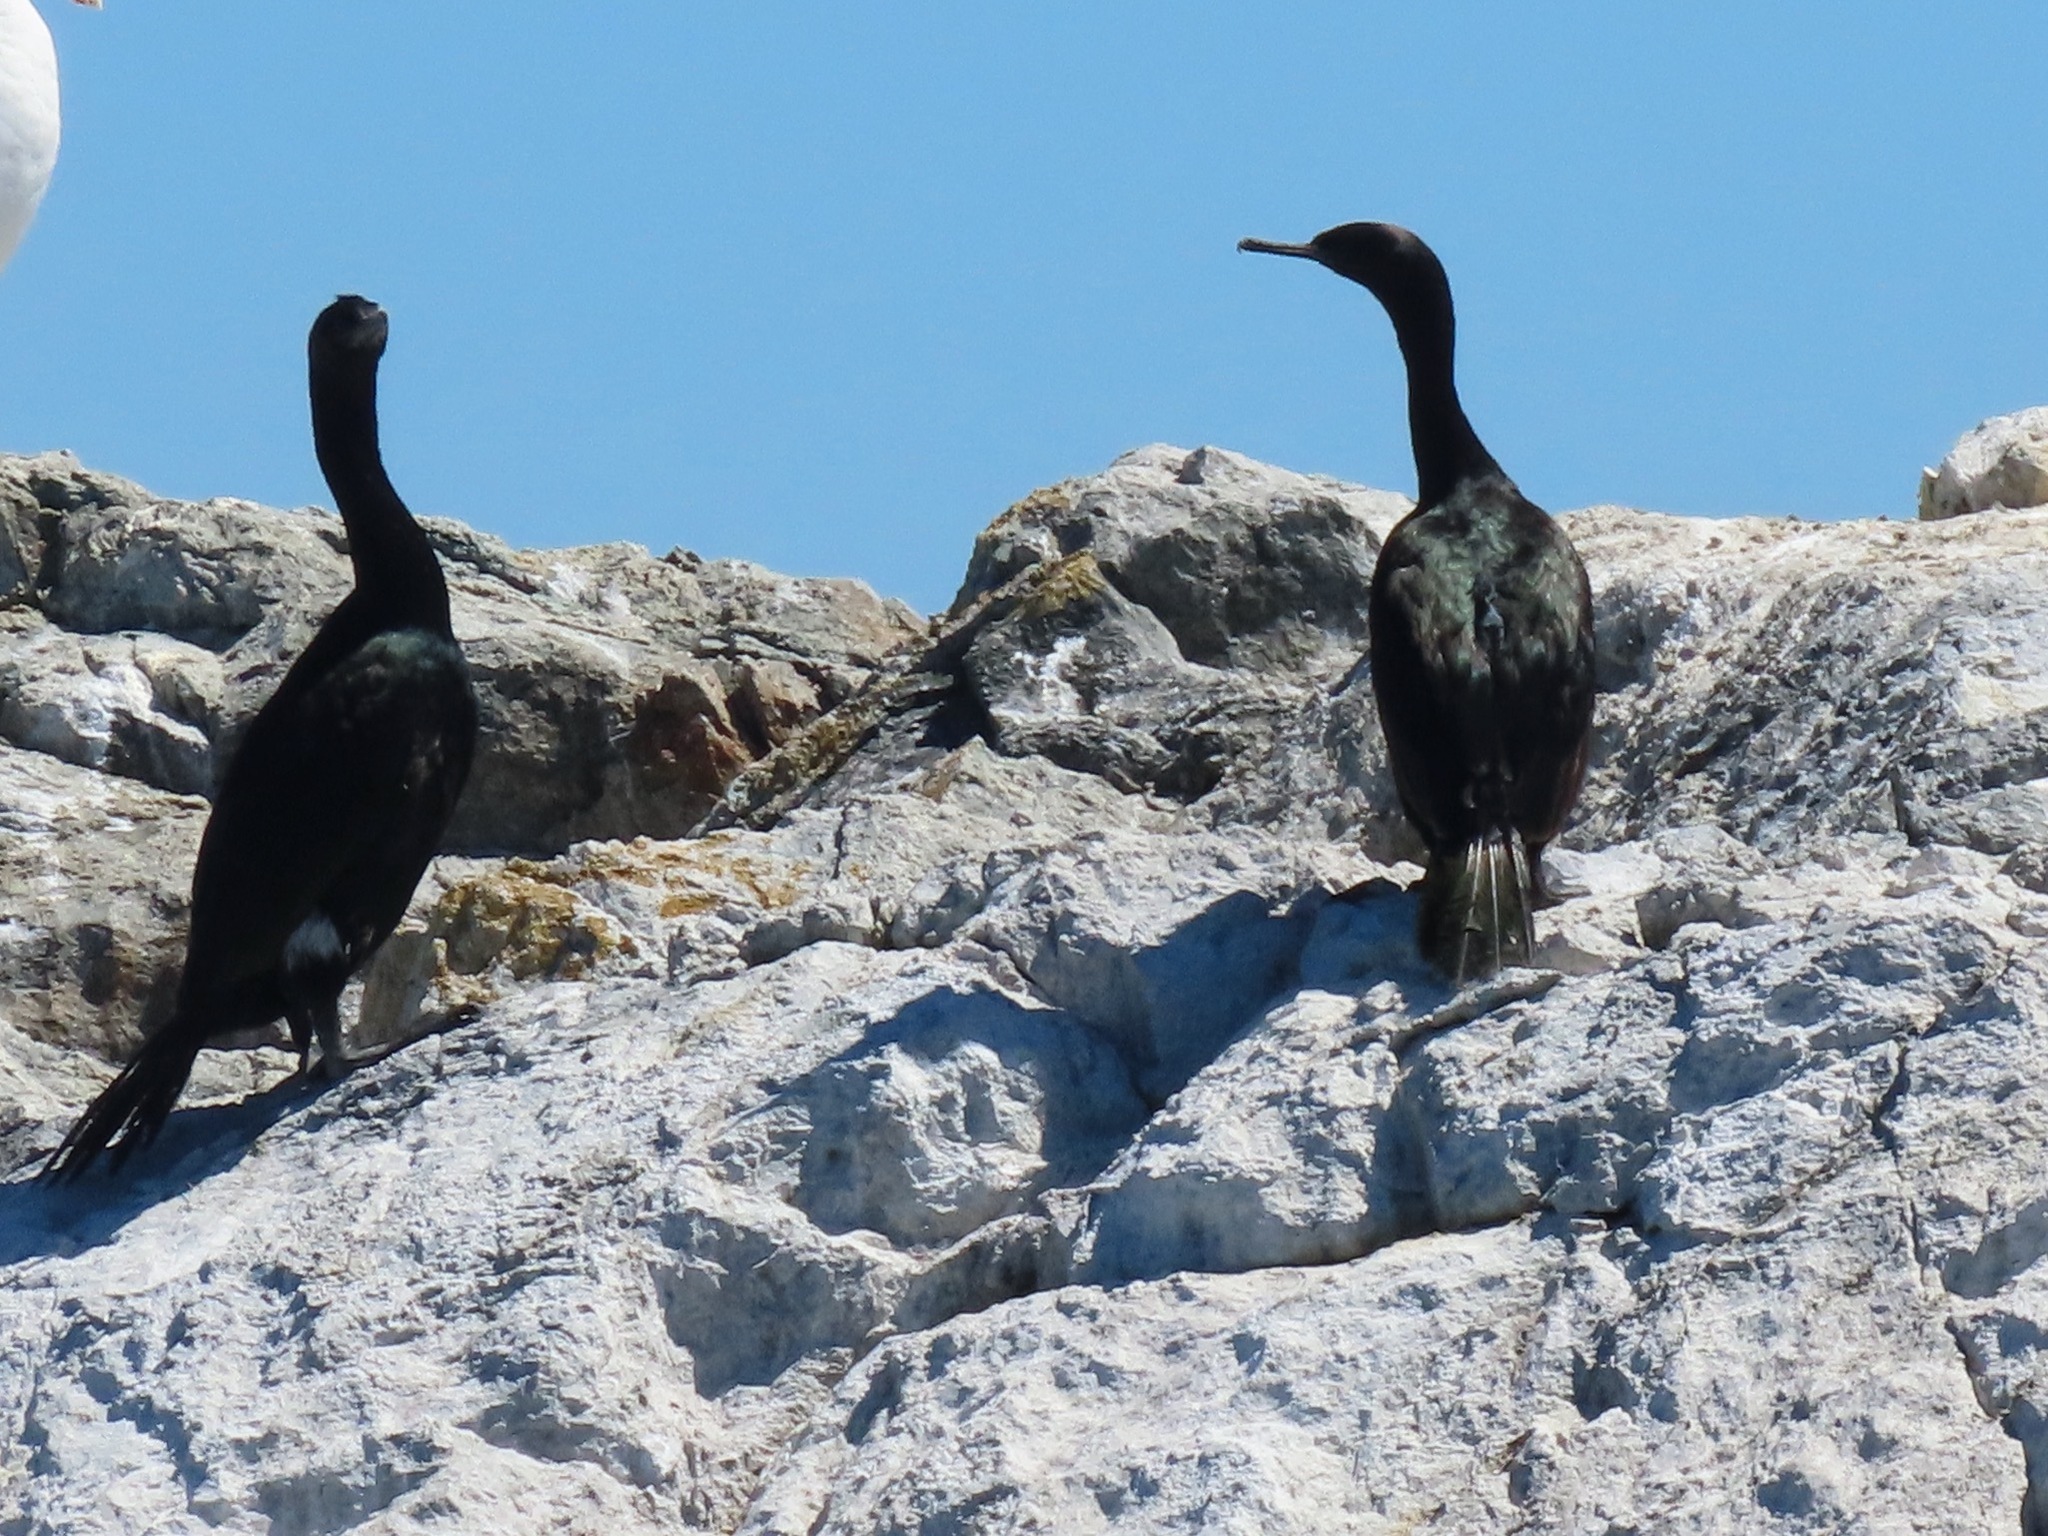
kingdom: Animalia
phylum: Chordata
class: Aves
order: Suliformes
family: Phalacrocoracidae
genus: Phalacrocorax
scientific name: Phalacrocorax pelagicus
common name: Pelagic cormorant
